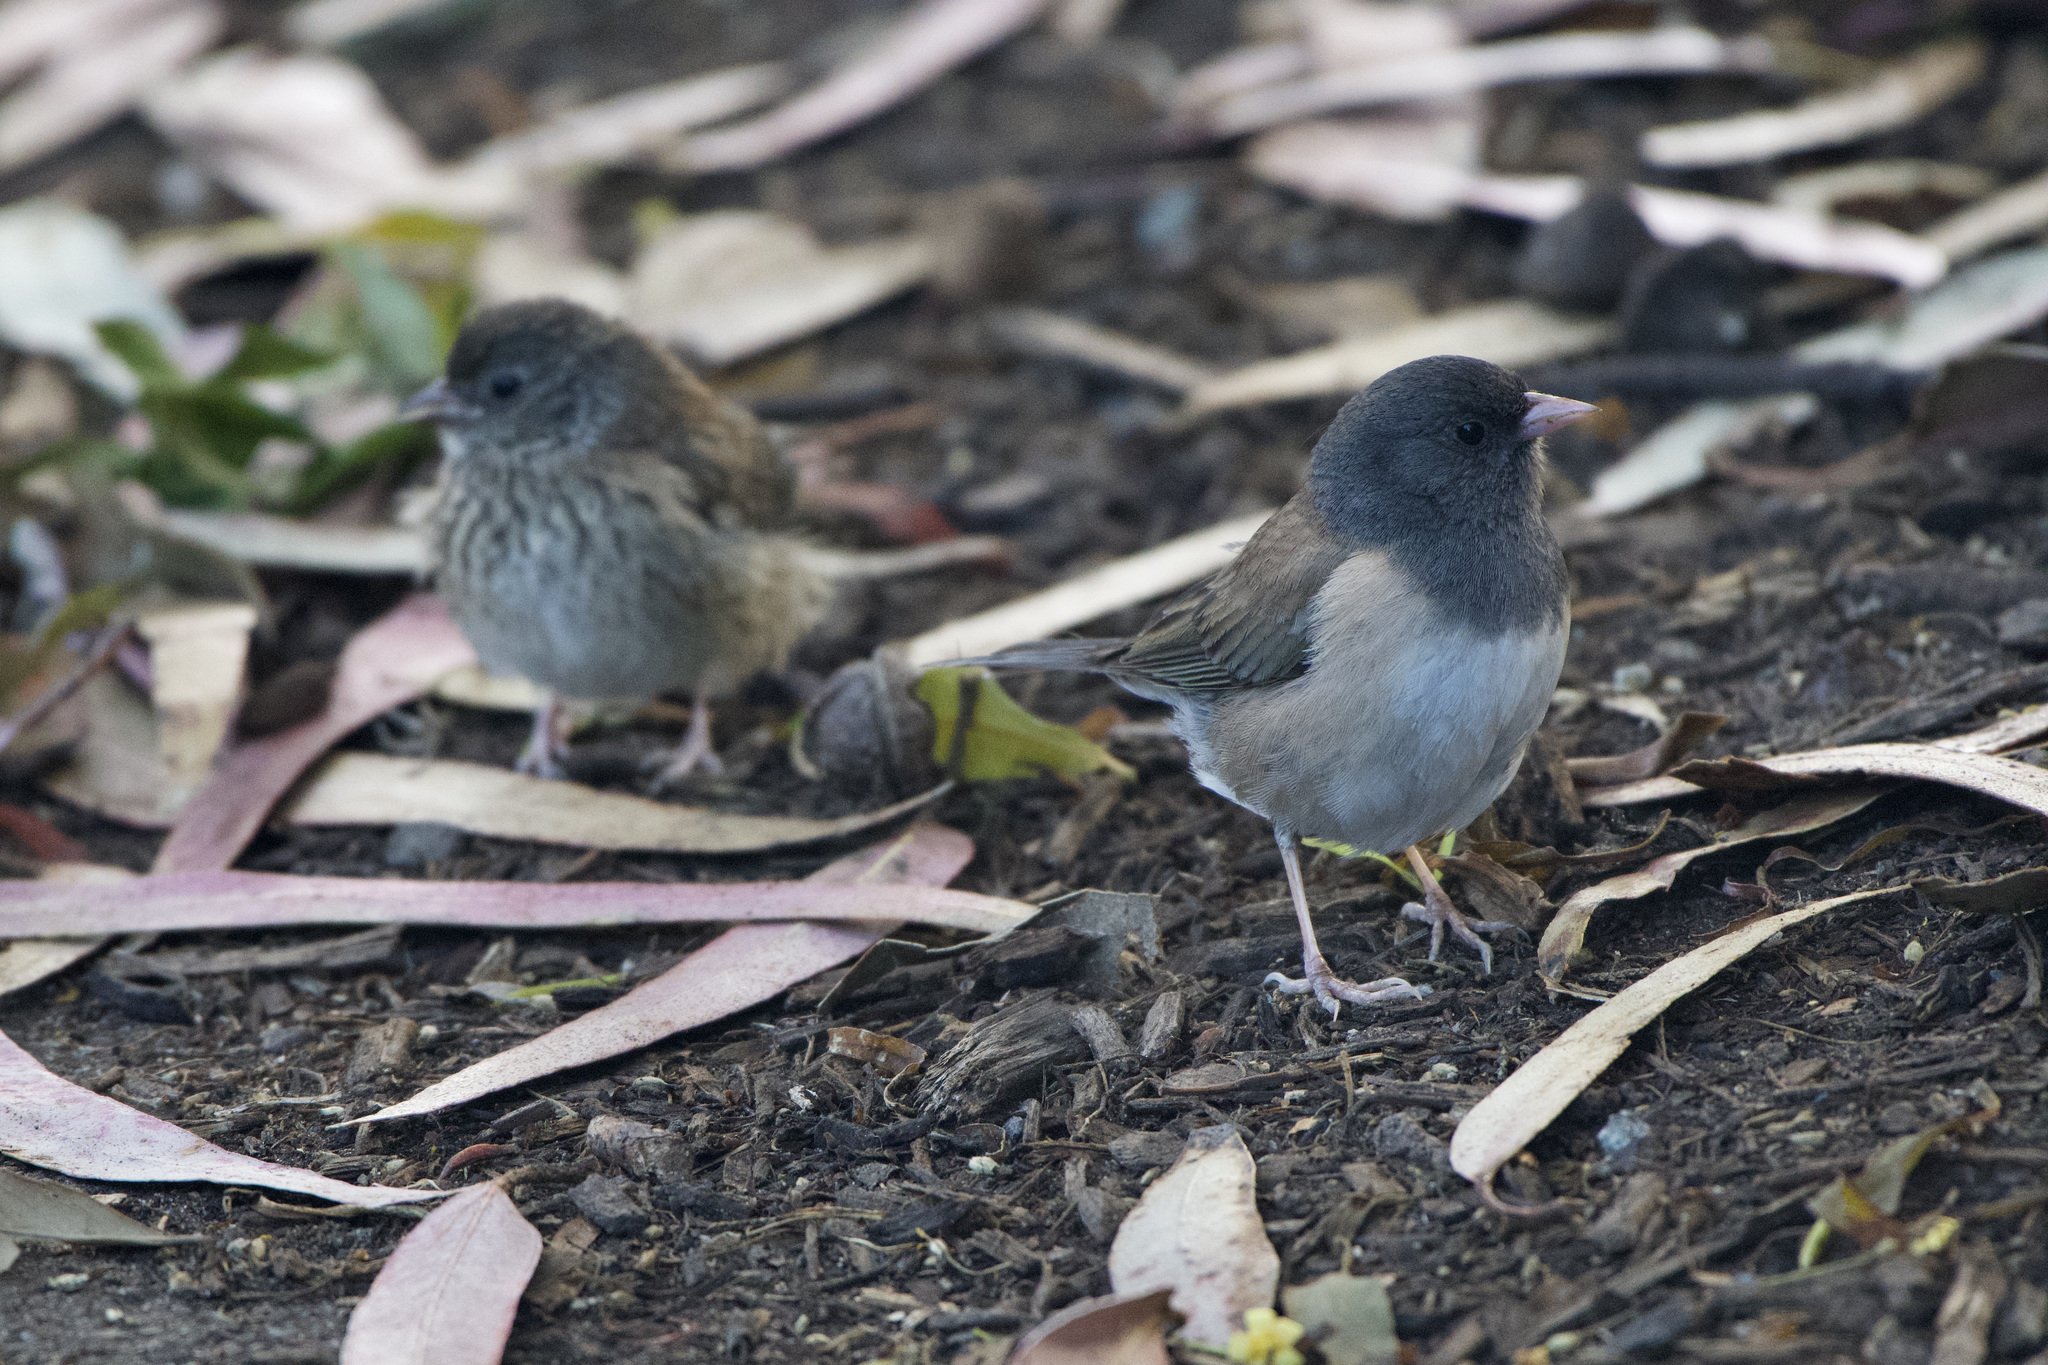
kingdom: Animalia
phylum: Chordata
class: Aves
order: Passeriformes
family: Passerellidae
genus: Junco
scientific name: Junco hyemalis
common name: Dark-eyed junco
